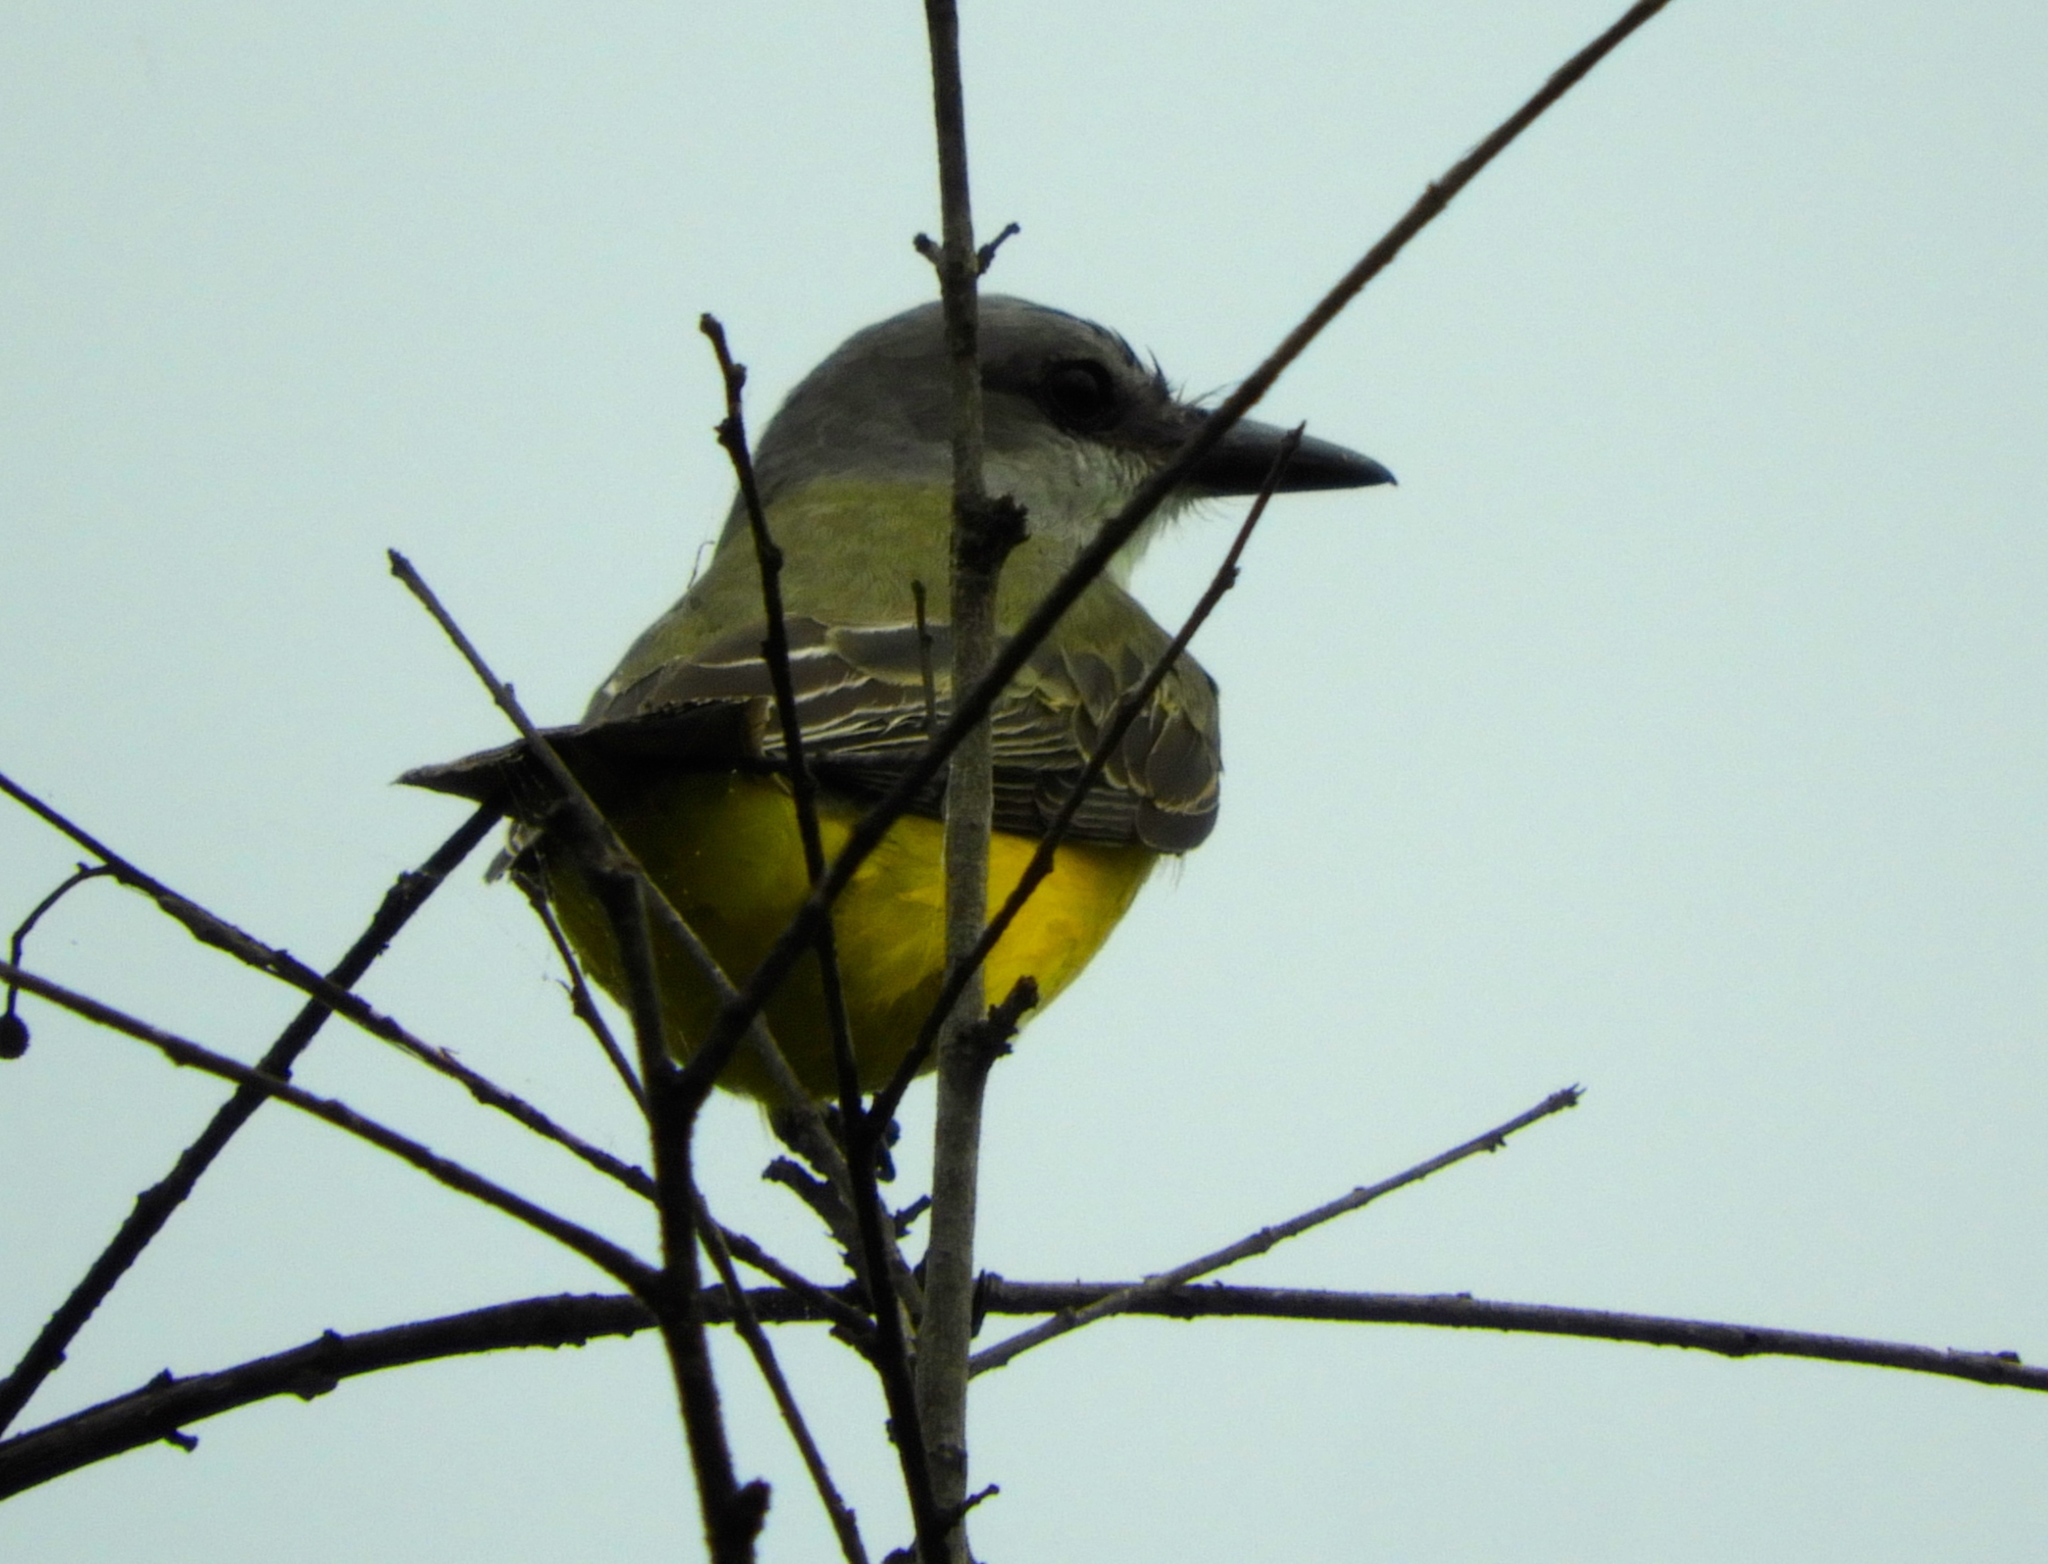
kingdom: Animalia
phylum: Chordata
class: Aves
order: Passeriformes
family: Tyrannidae
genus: Tyrannus
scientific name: Tyrannus melancholicus
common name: Tropical kingbird
